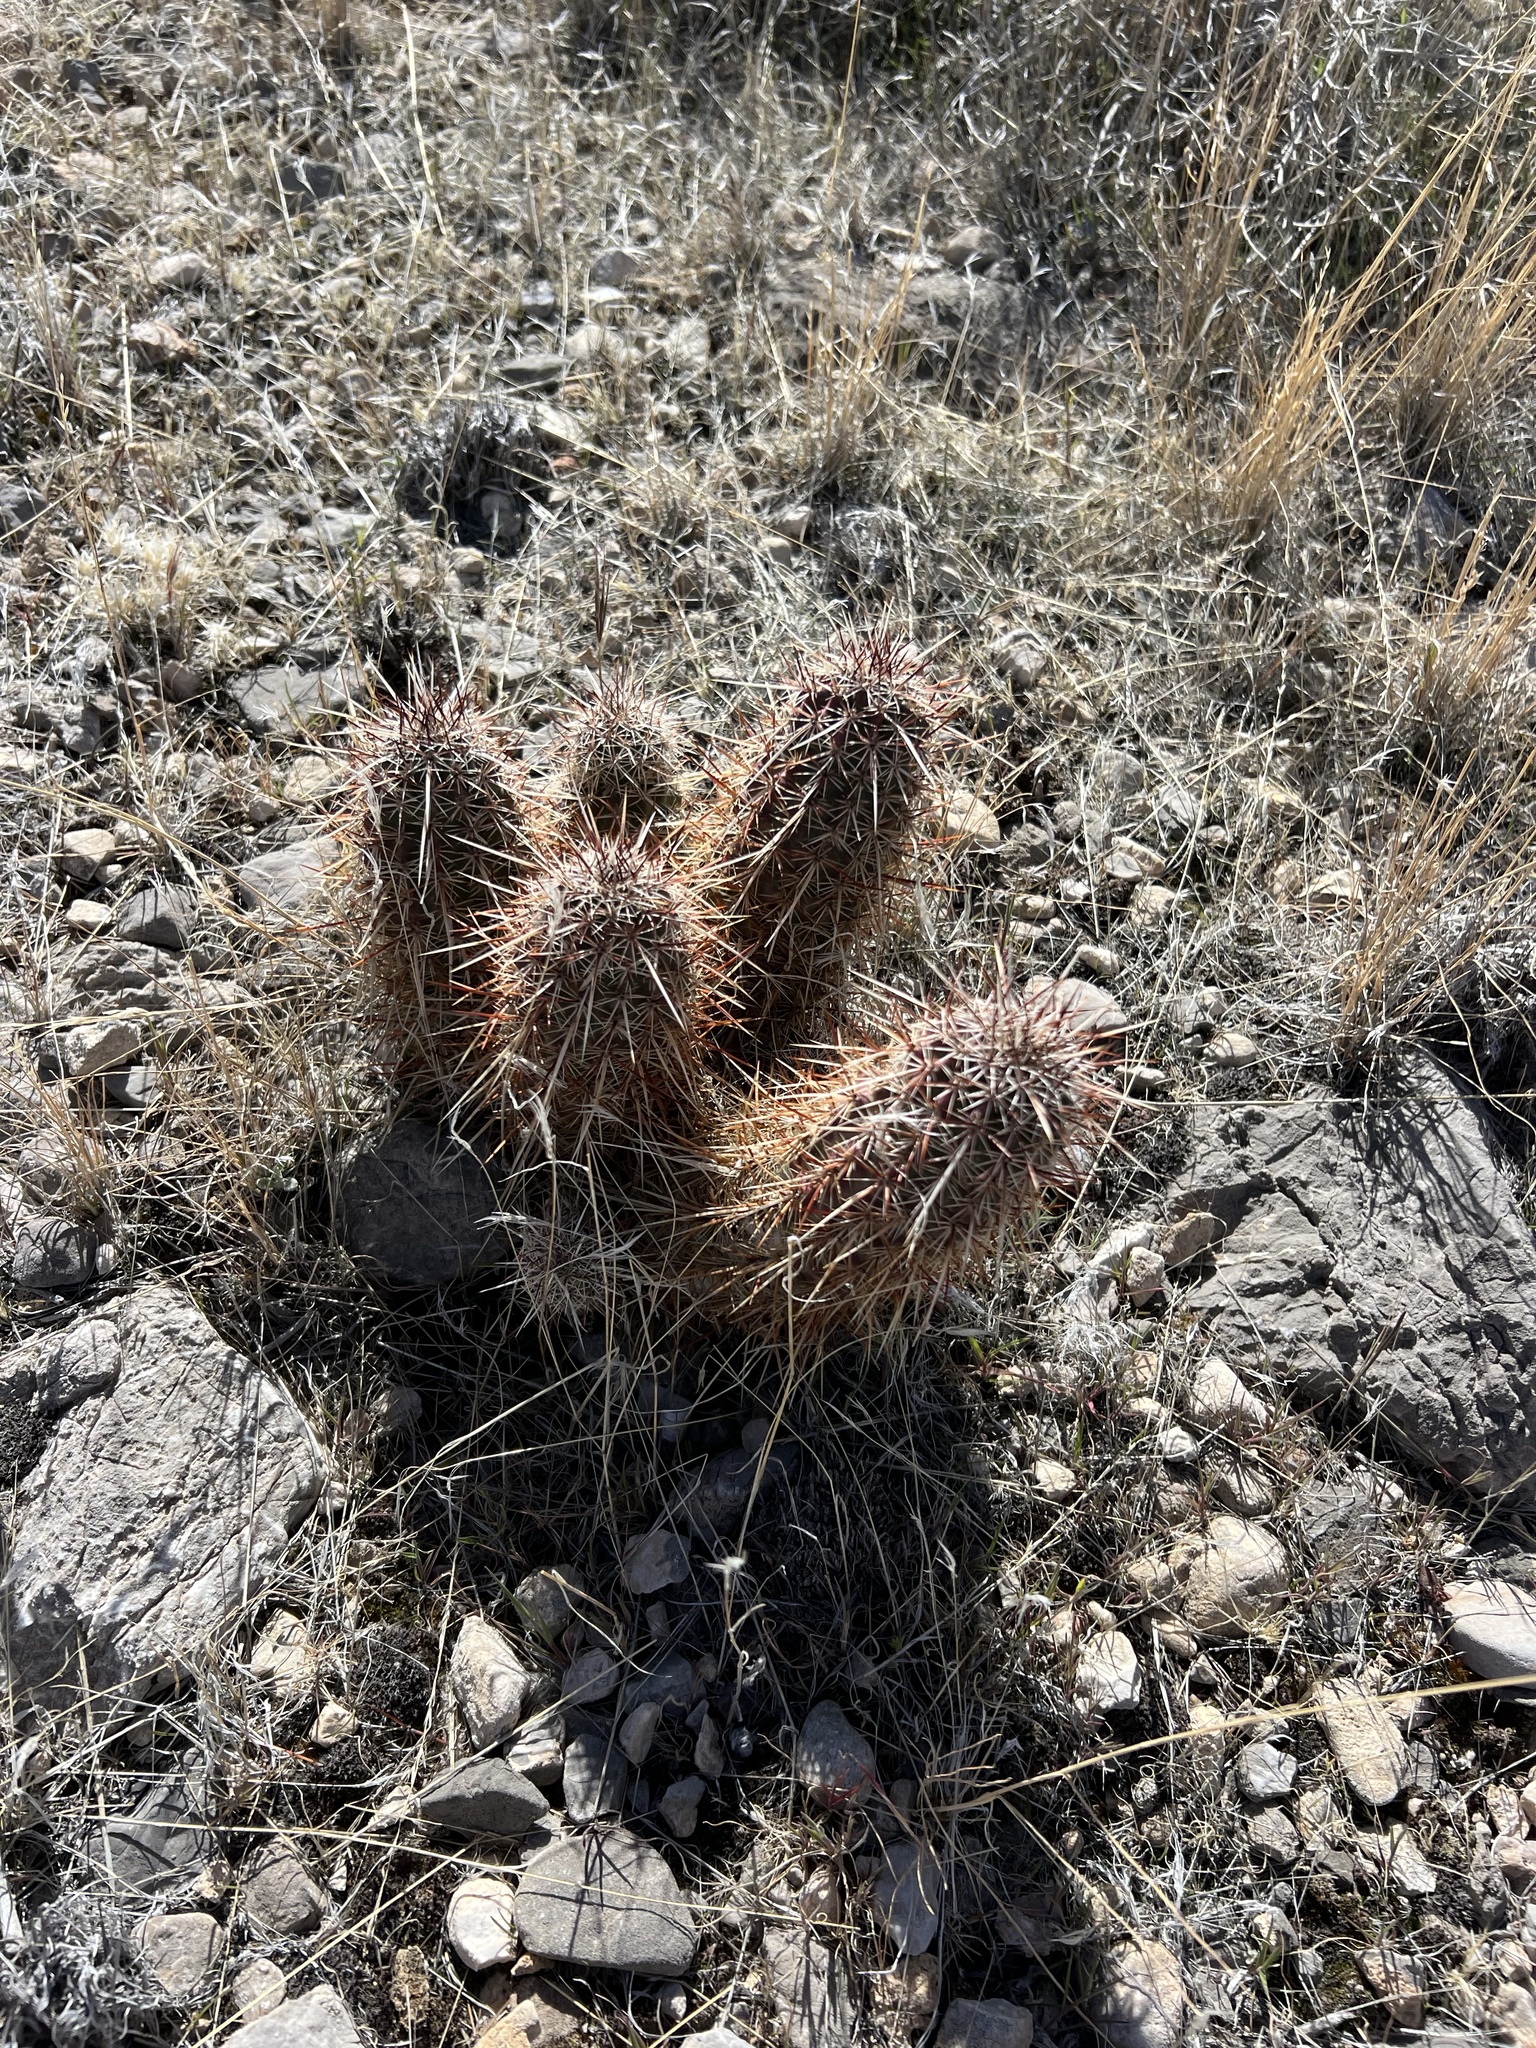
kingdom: Plantae
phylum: Tracheophyta
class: Magnoliopsida
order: Caryophyllales
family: Cactaceae
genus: Echinocereus
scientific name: Echinocereus engelmannii
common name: Engelmann's hedgehog cactus
